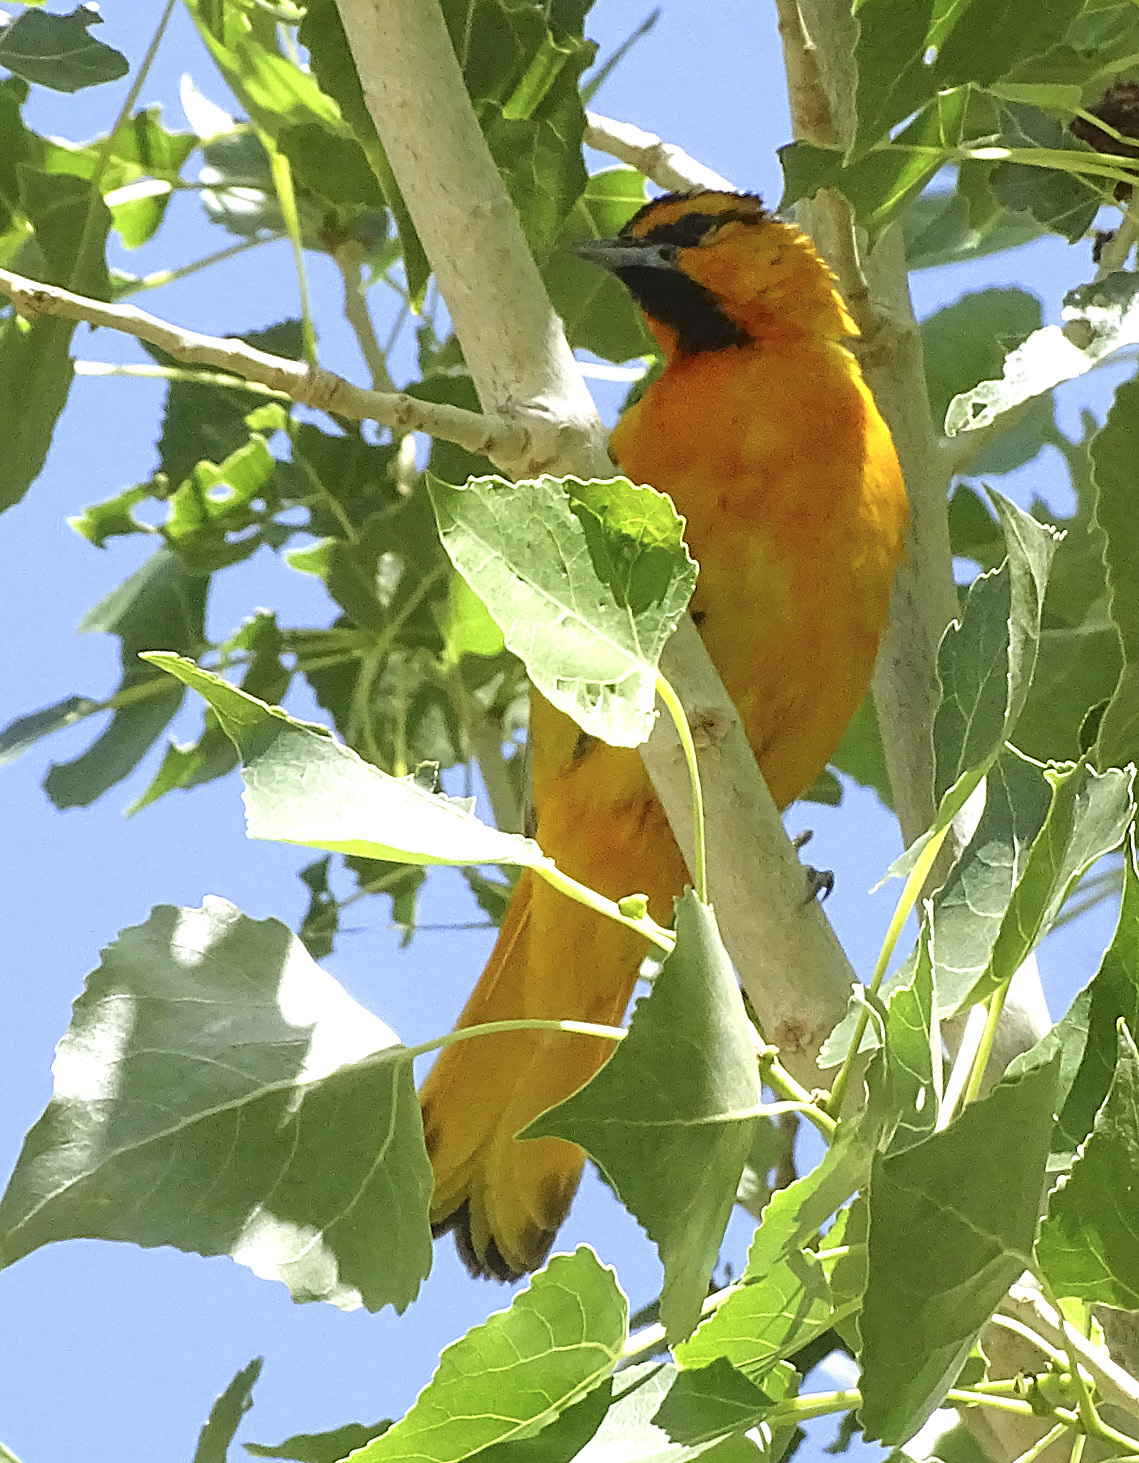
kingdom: Animalia
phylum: Chordata
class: Aves
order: Passeriformes
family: Icteridae
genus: Icterus
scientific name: Icterus bullockii
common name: Bullock's oriole
